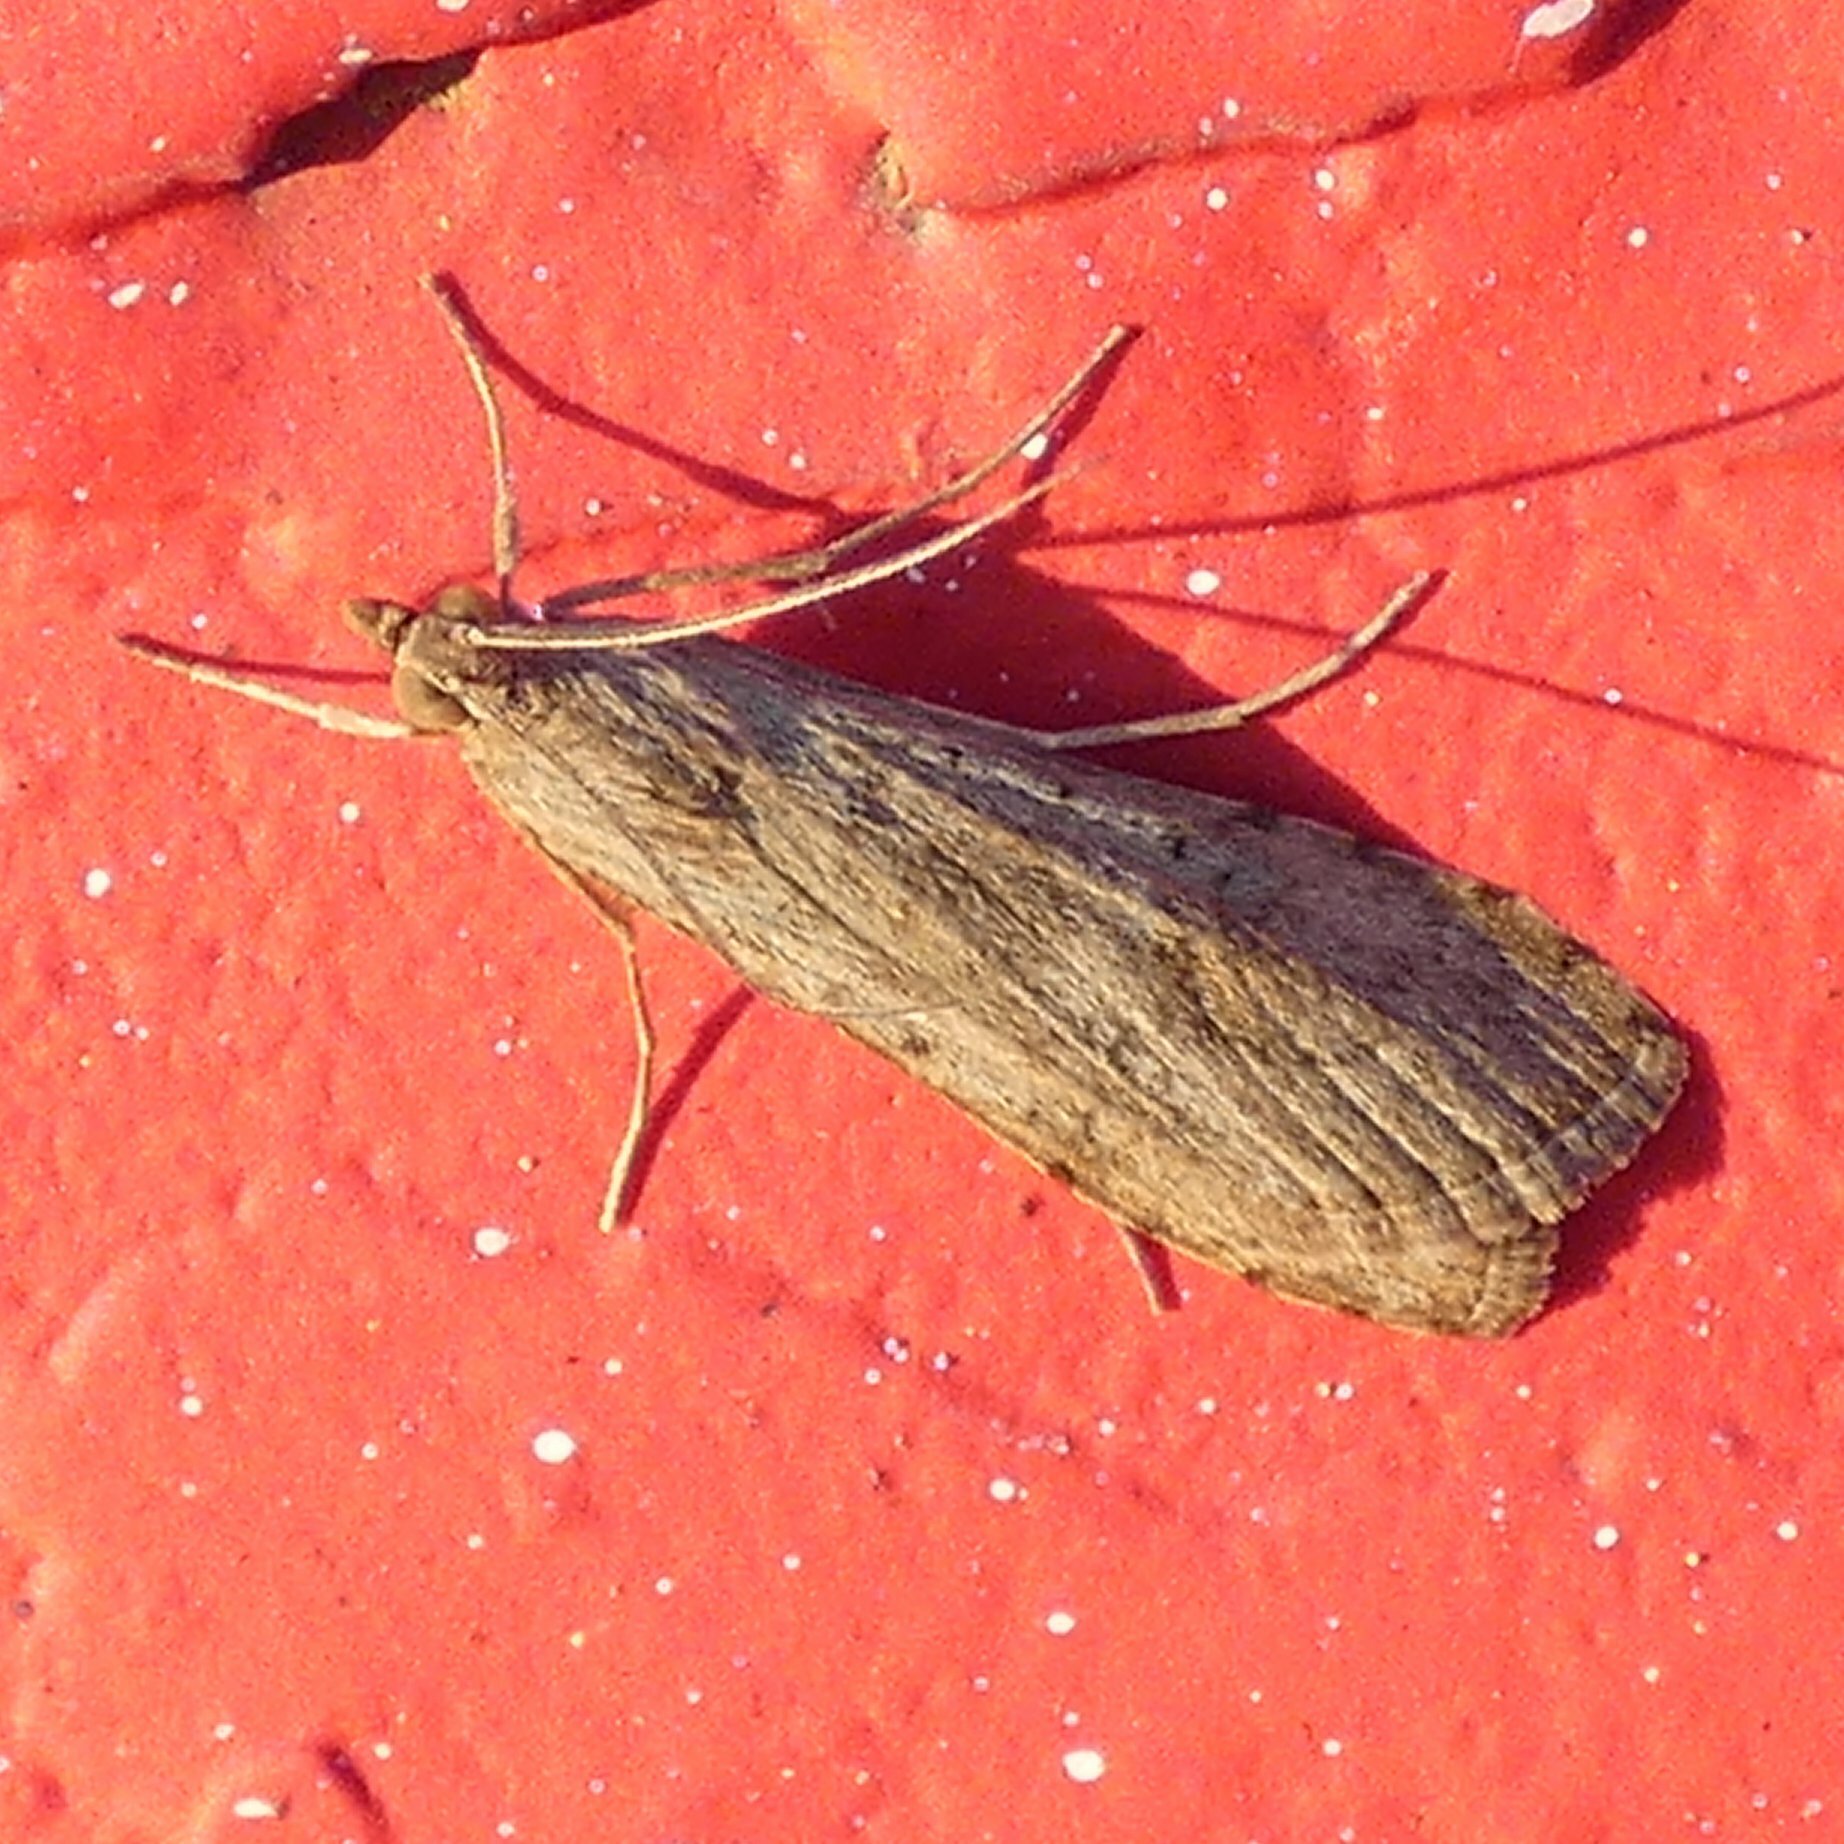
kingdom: Animalia
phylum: Arthropoda
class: Insecta
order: Lepidoptera
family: Crambidae
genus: Nomophila
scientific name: Nomophila noctuella
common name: Rush veneer
